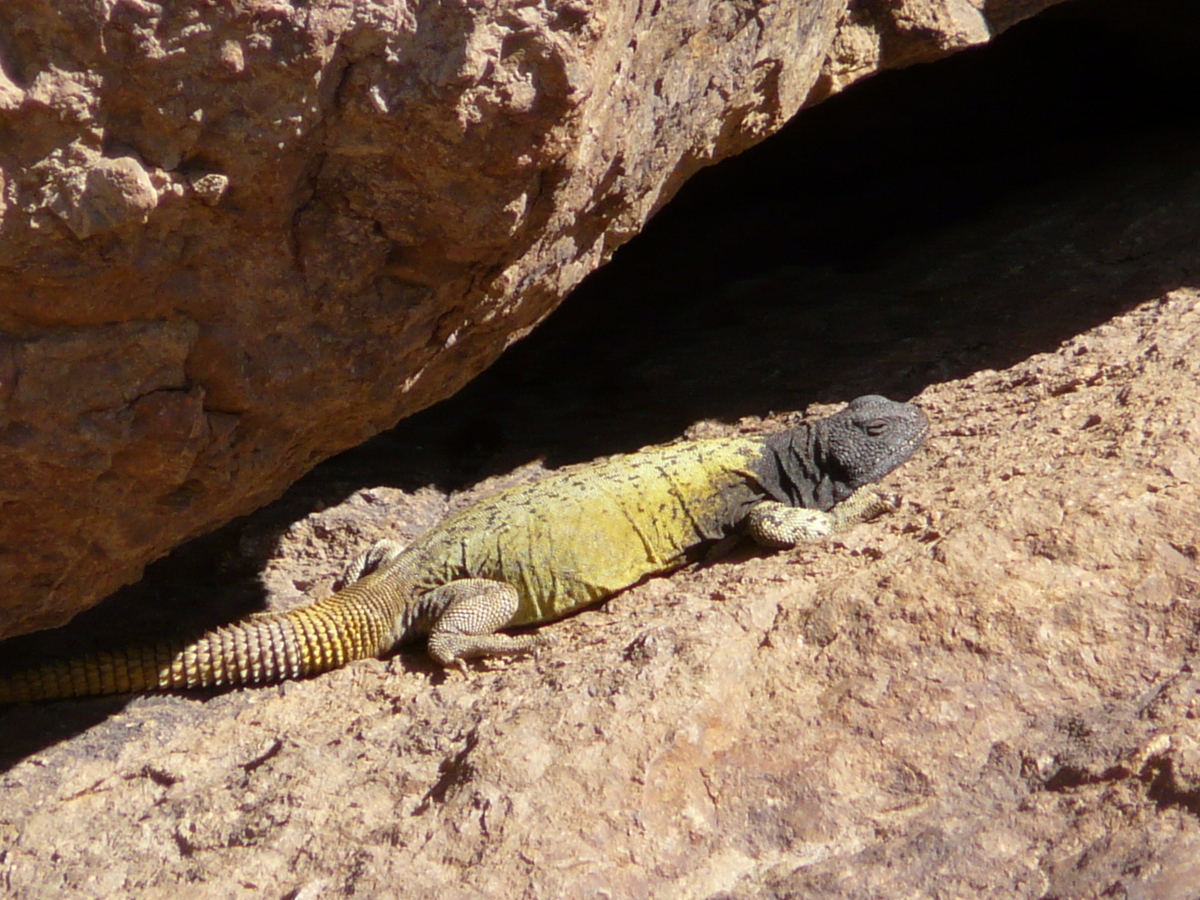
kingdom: Animalia
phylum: Chordata
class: Squamata
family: Liolaemidae
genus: Phymaturus
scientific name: Phymaturus verdugo
